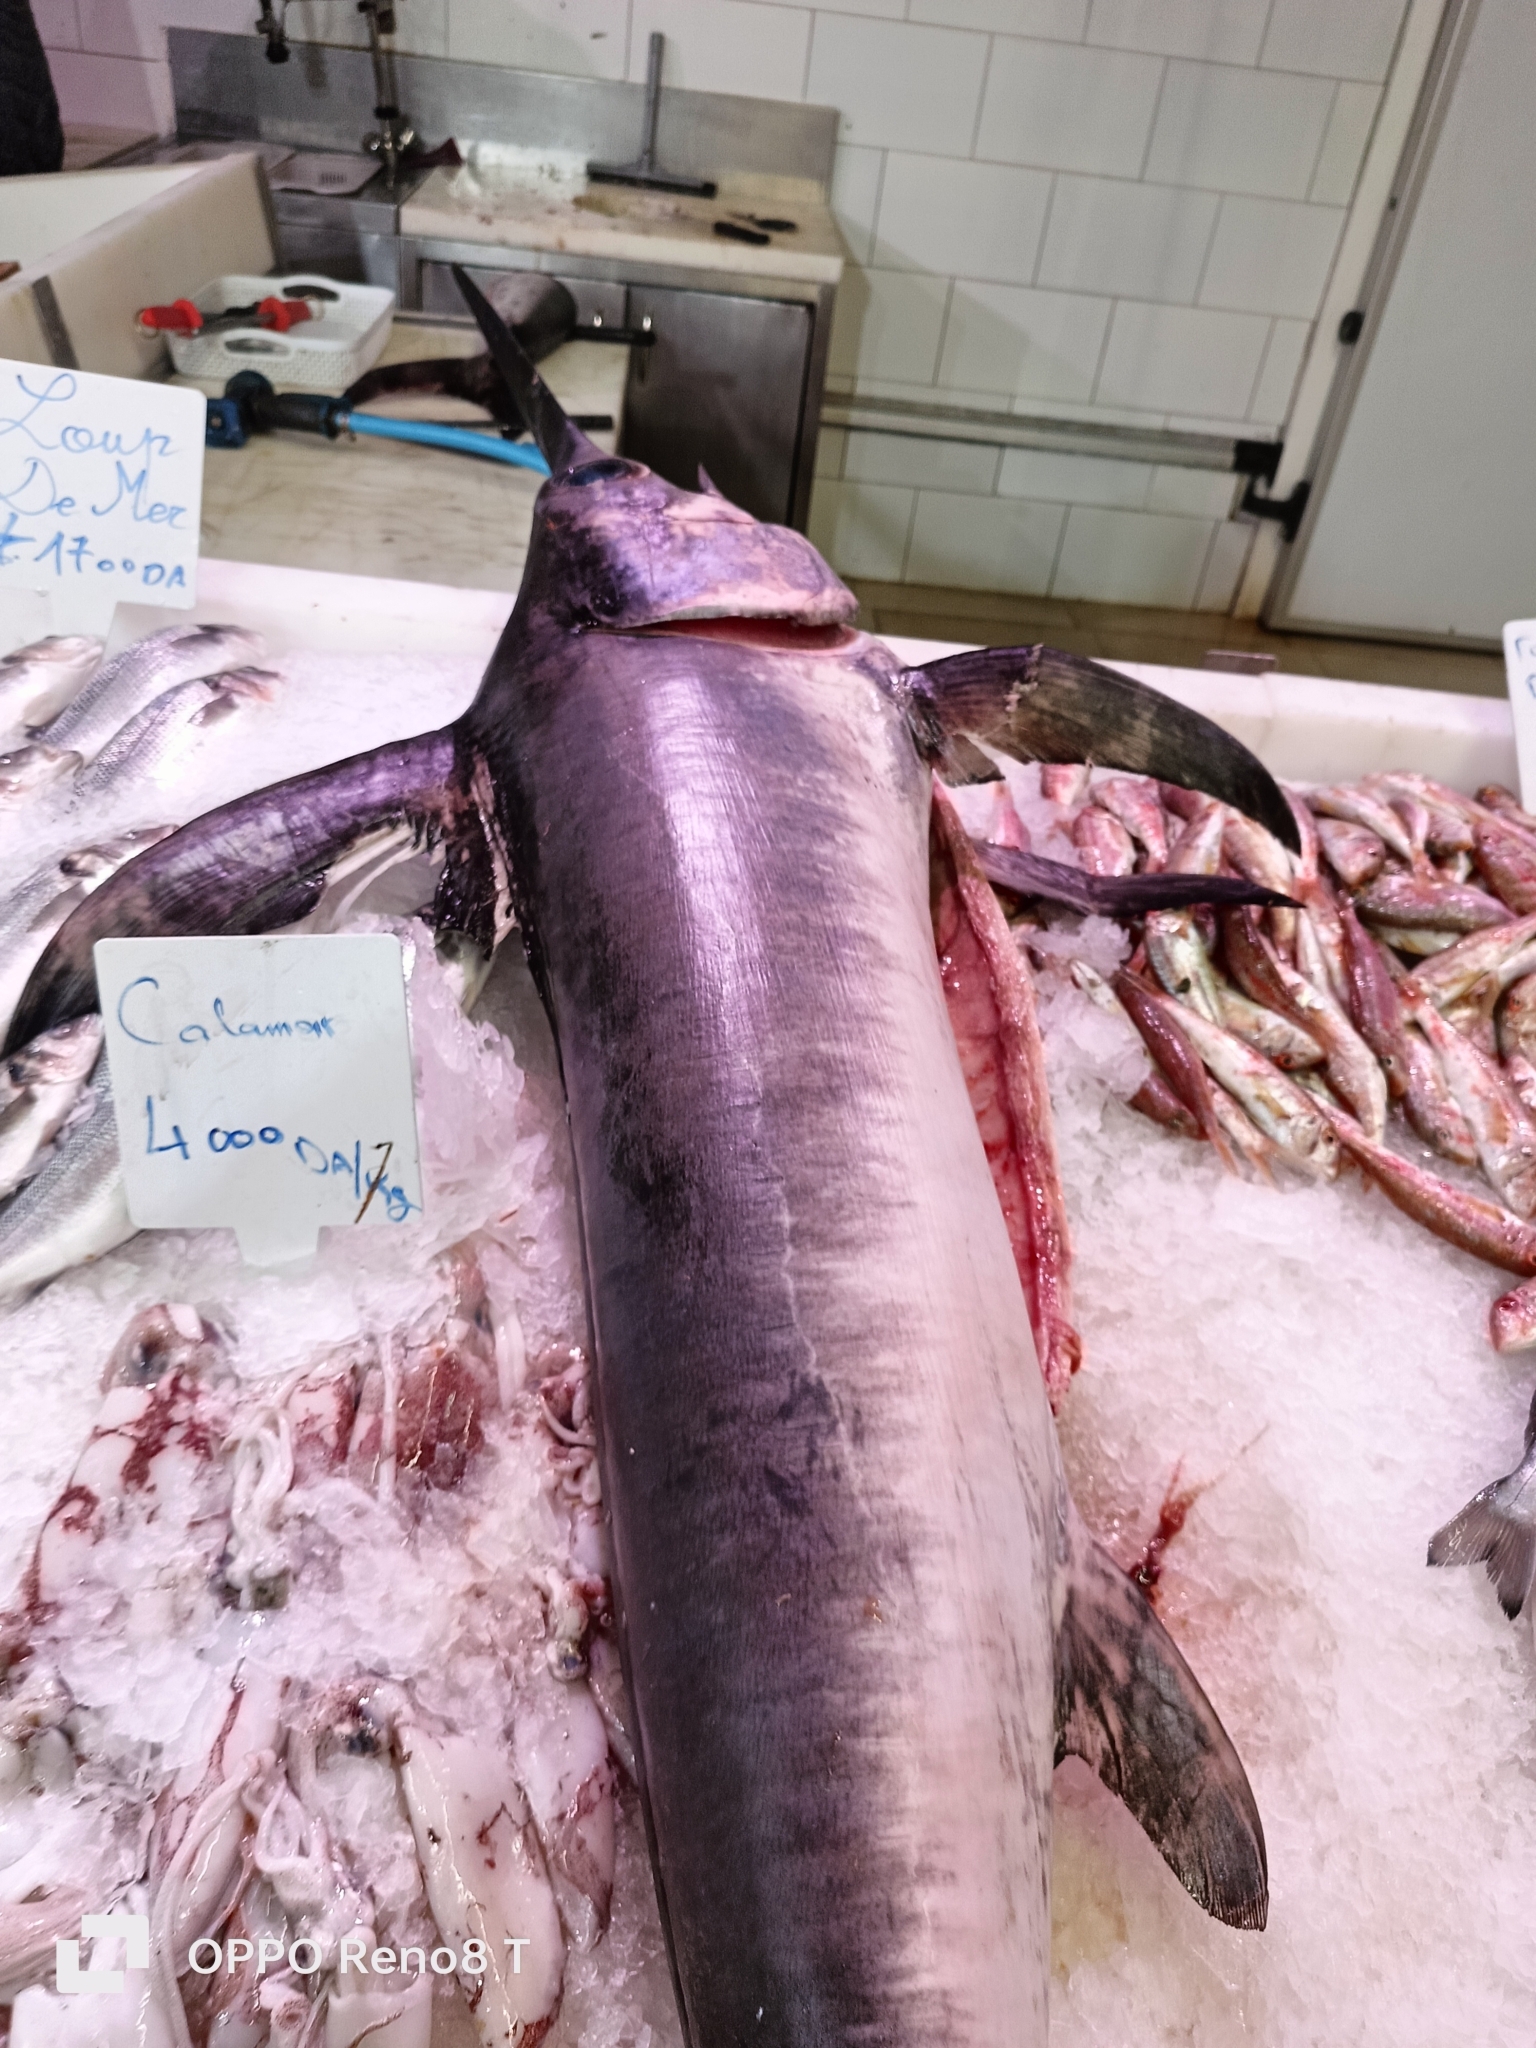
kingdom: Animalia
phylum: Chordata
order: Perciformes
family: Xiphiidae
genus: Xiphias
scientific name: Xiphias gladius
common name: Swordfish
